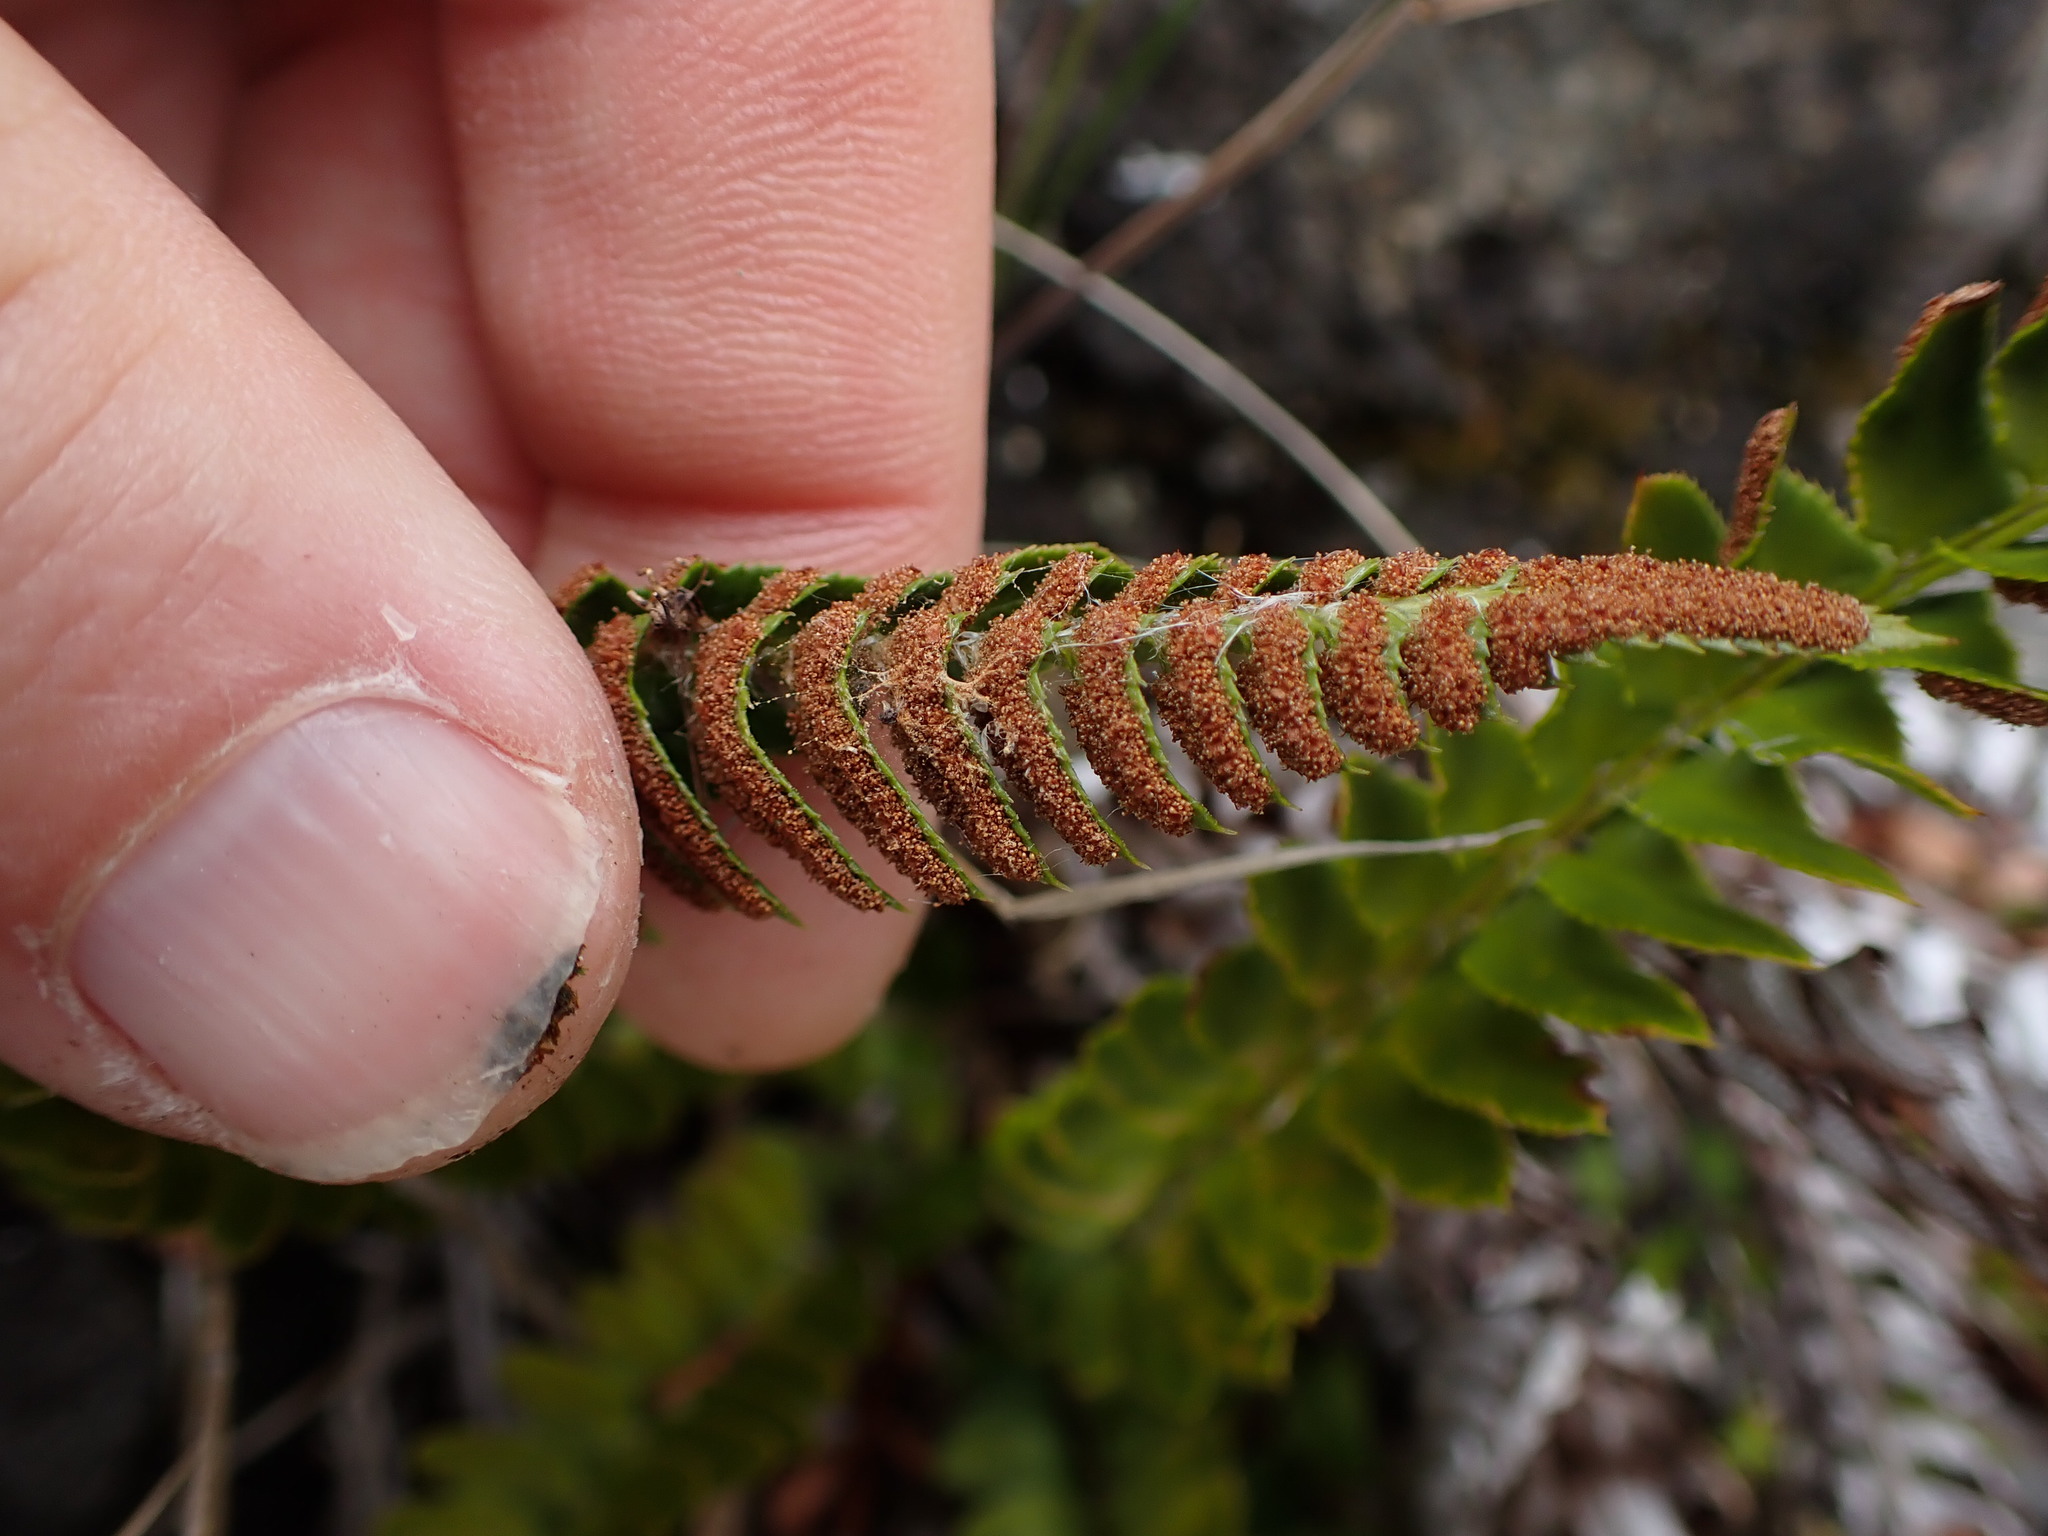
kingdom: Plantae
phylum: Tracheophyta
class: Polypodiopsida
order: Polypodiales
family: Dryopteridaceae
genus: Polystichum
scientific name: Polystichum imbricans
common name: Dwarf western sword fern
